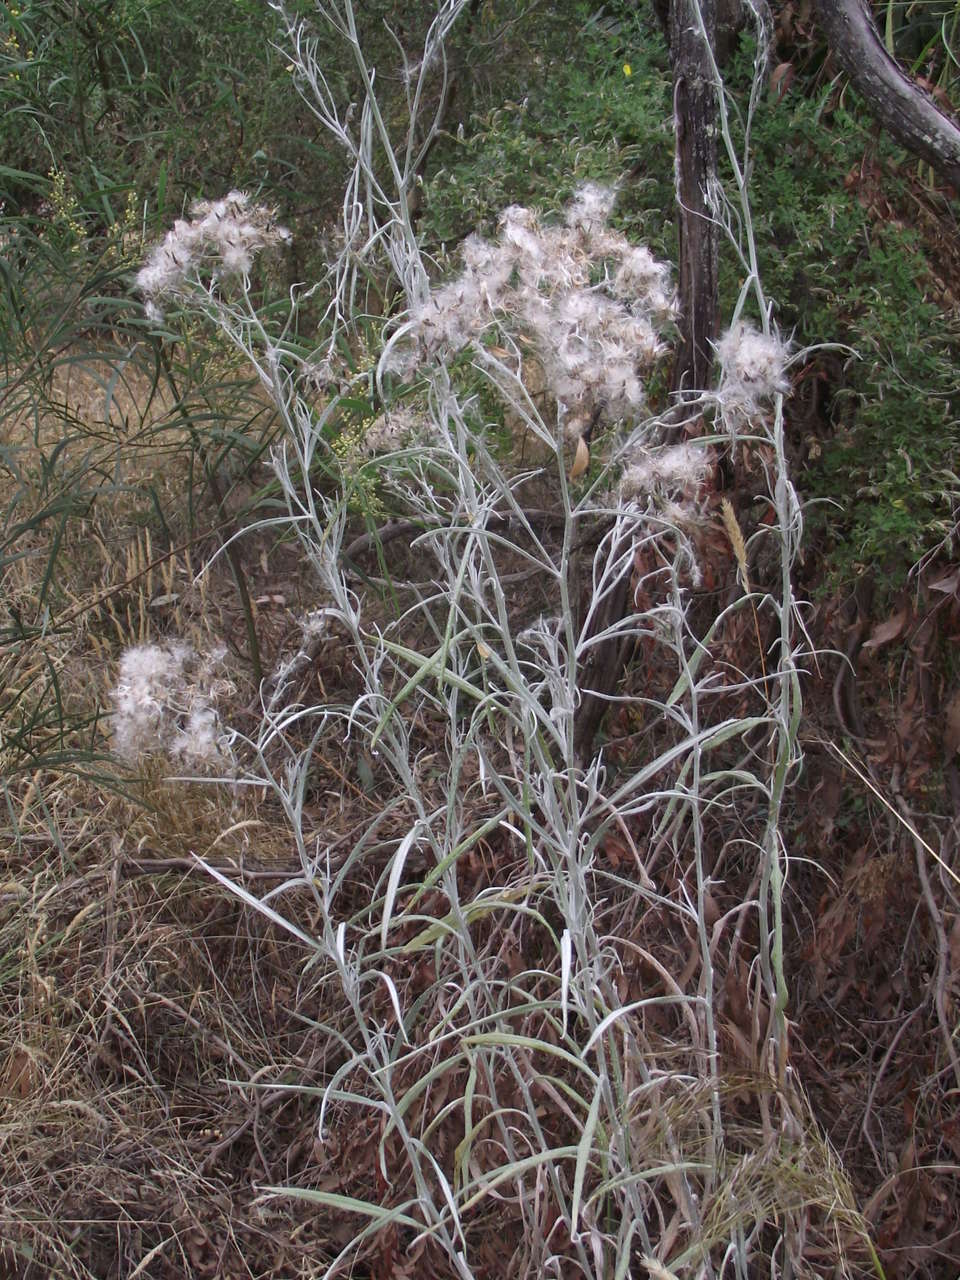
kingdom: Plantae
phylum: Tracheophyta
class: Magnoliopsida
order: Asterales
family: Asteraceae
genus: Senecio
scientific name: Senecio quadridentatus
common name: Cotton fireweed
